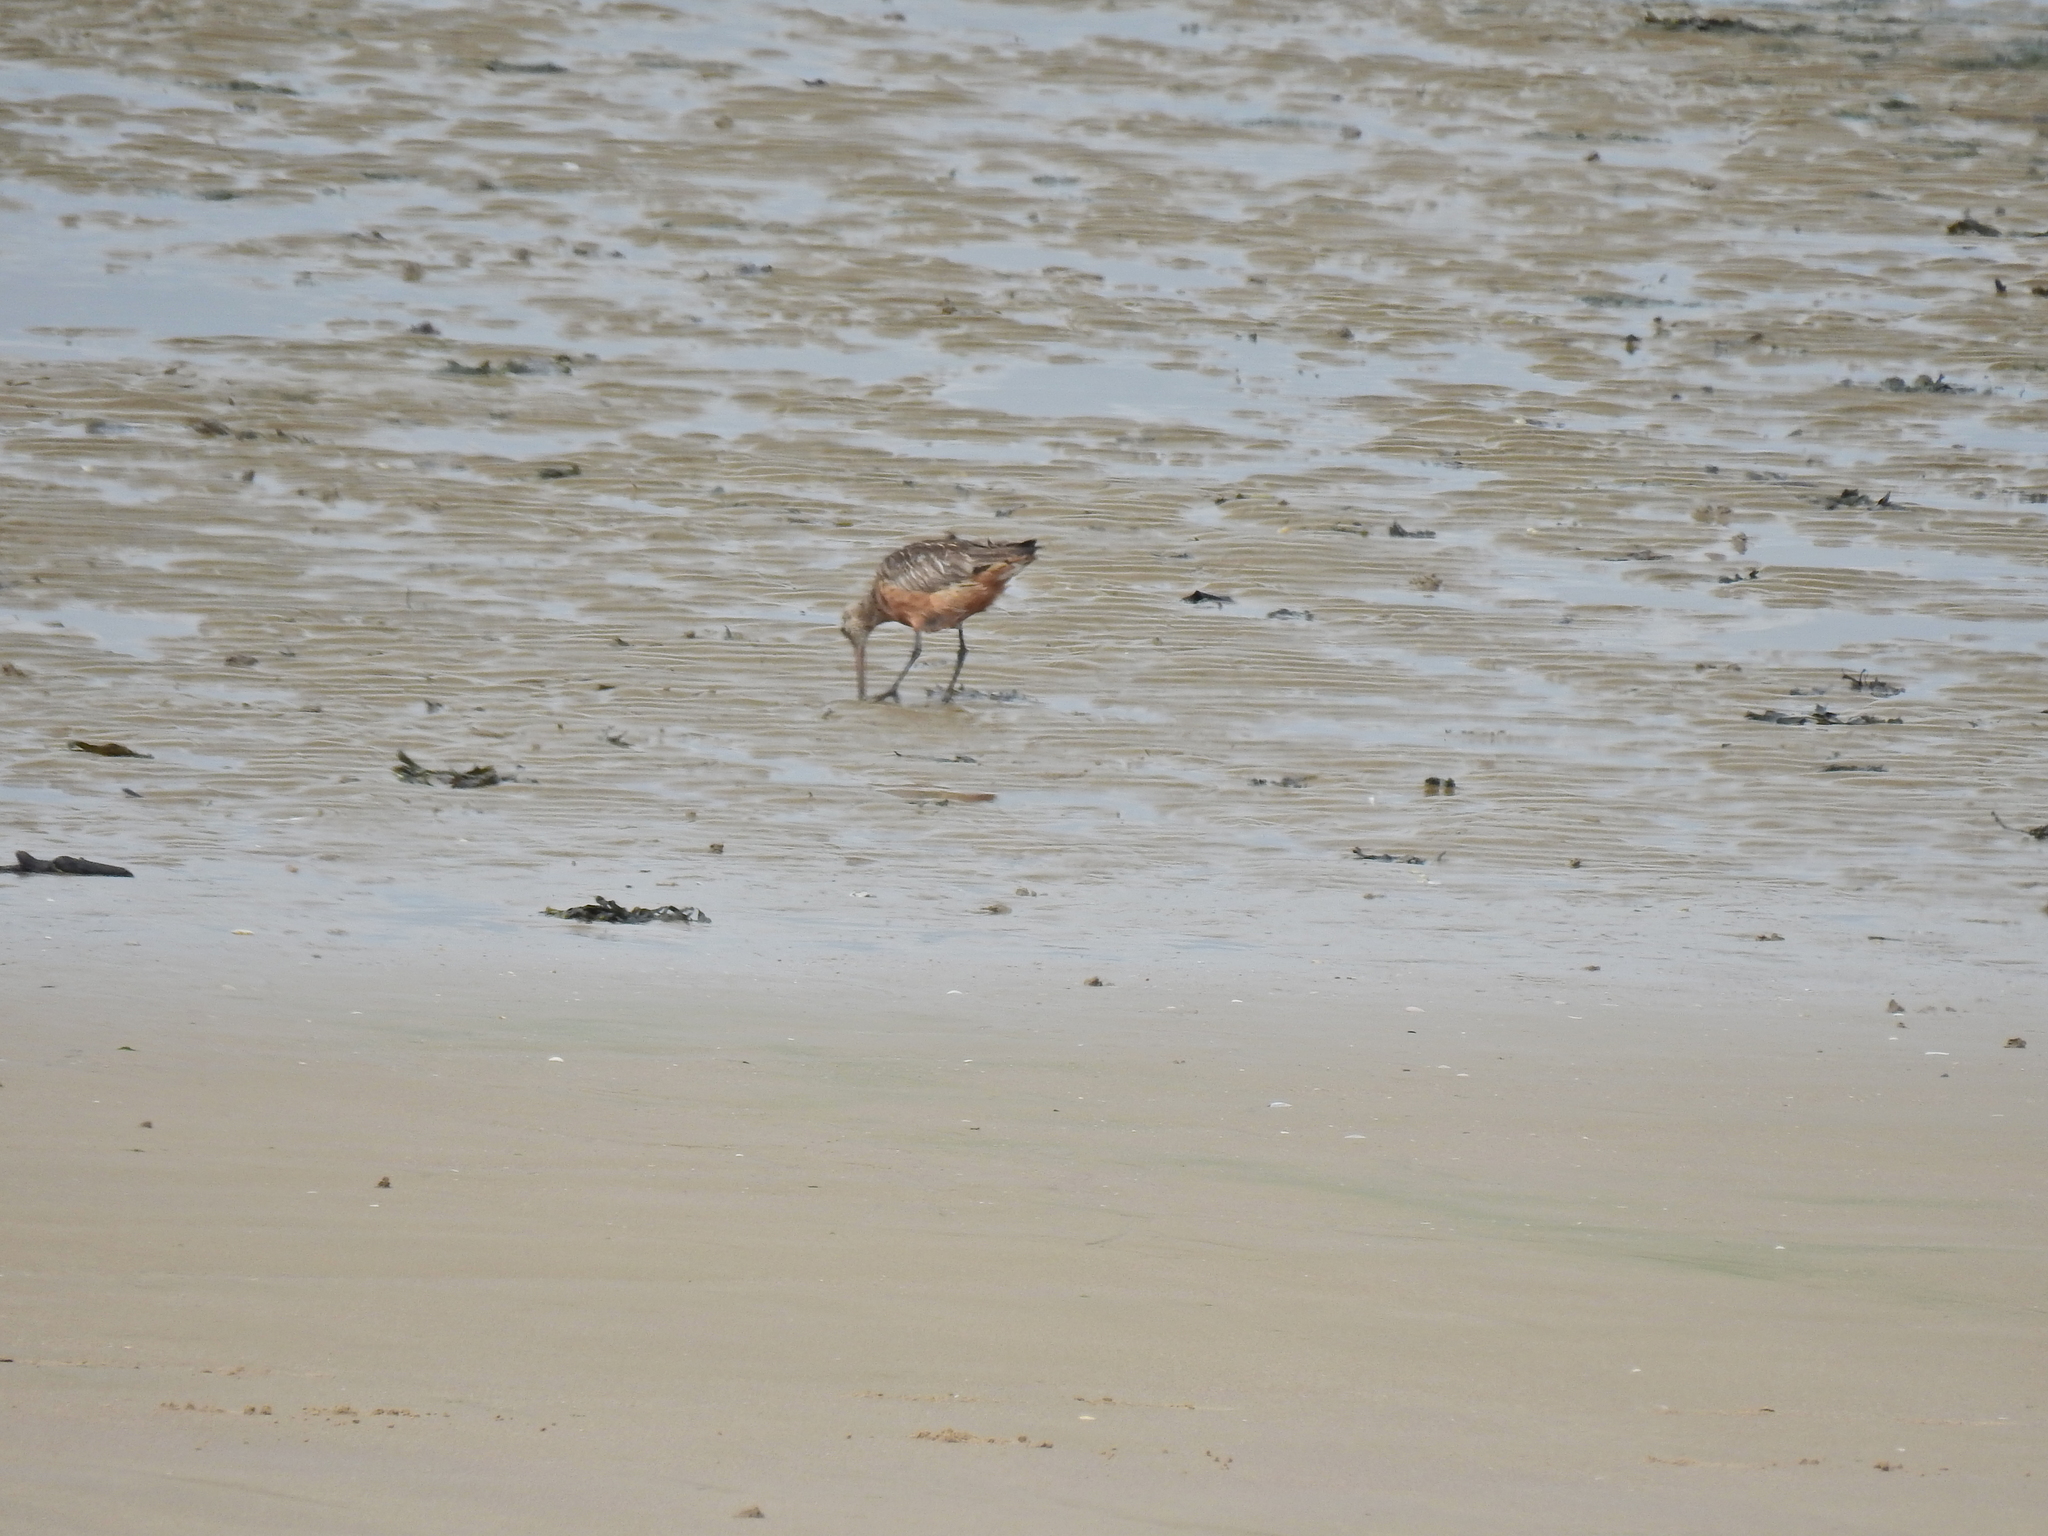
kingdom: Animalia
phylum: Chordata
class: Aves
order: Charadriiformes
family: Scolopacidae
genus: Limosa
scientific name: Limosa lapponica
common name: Bar-tailed godwit
